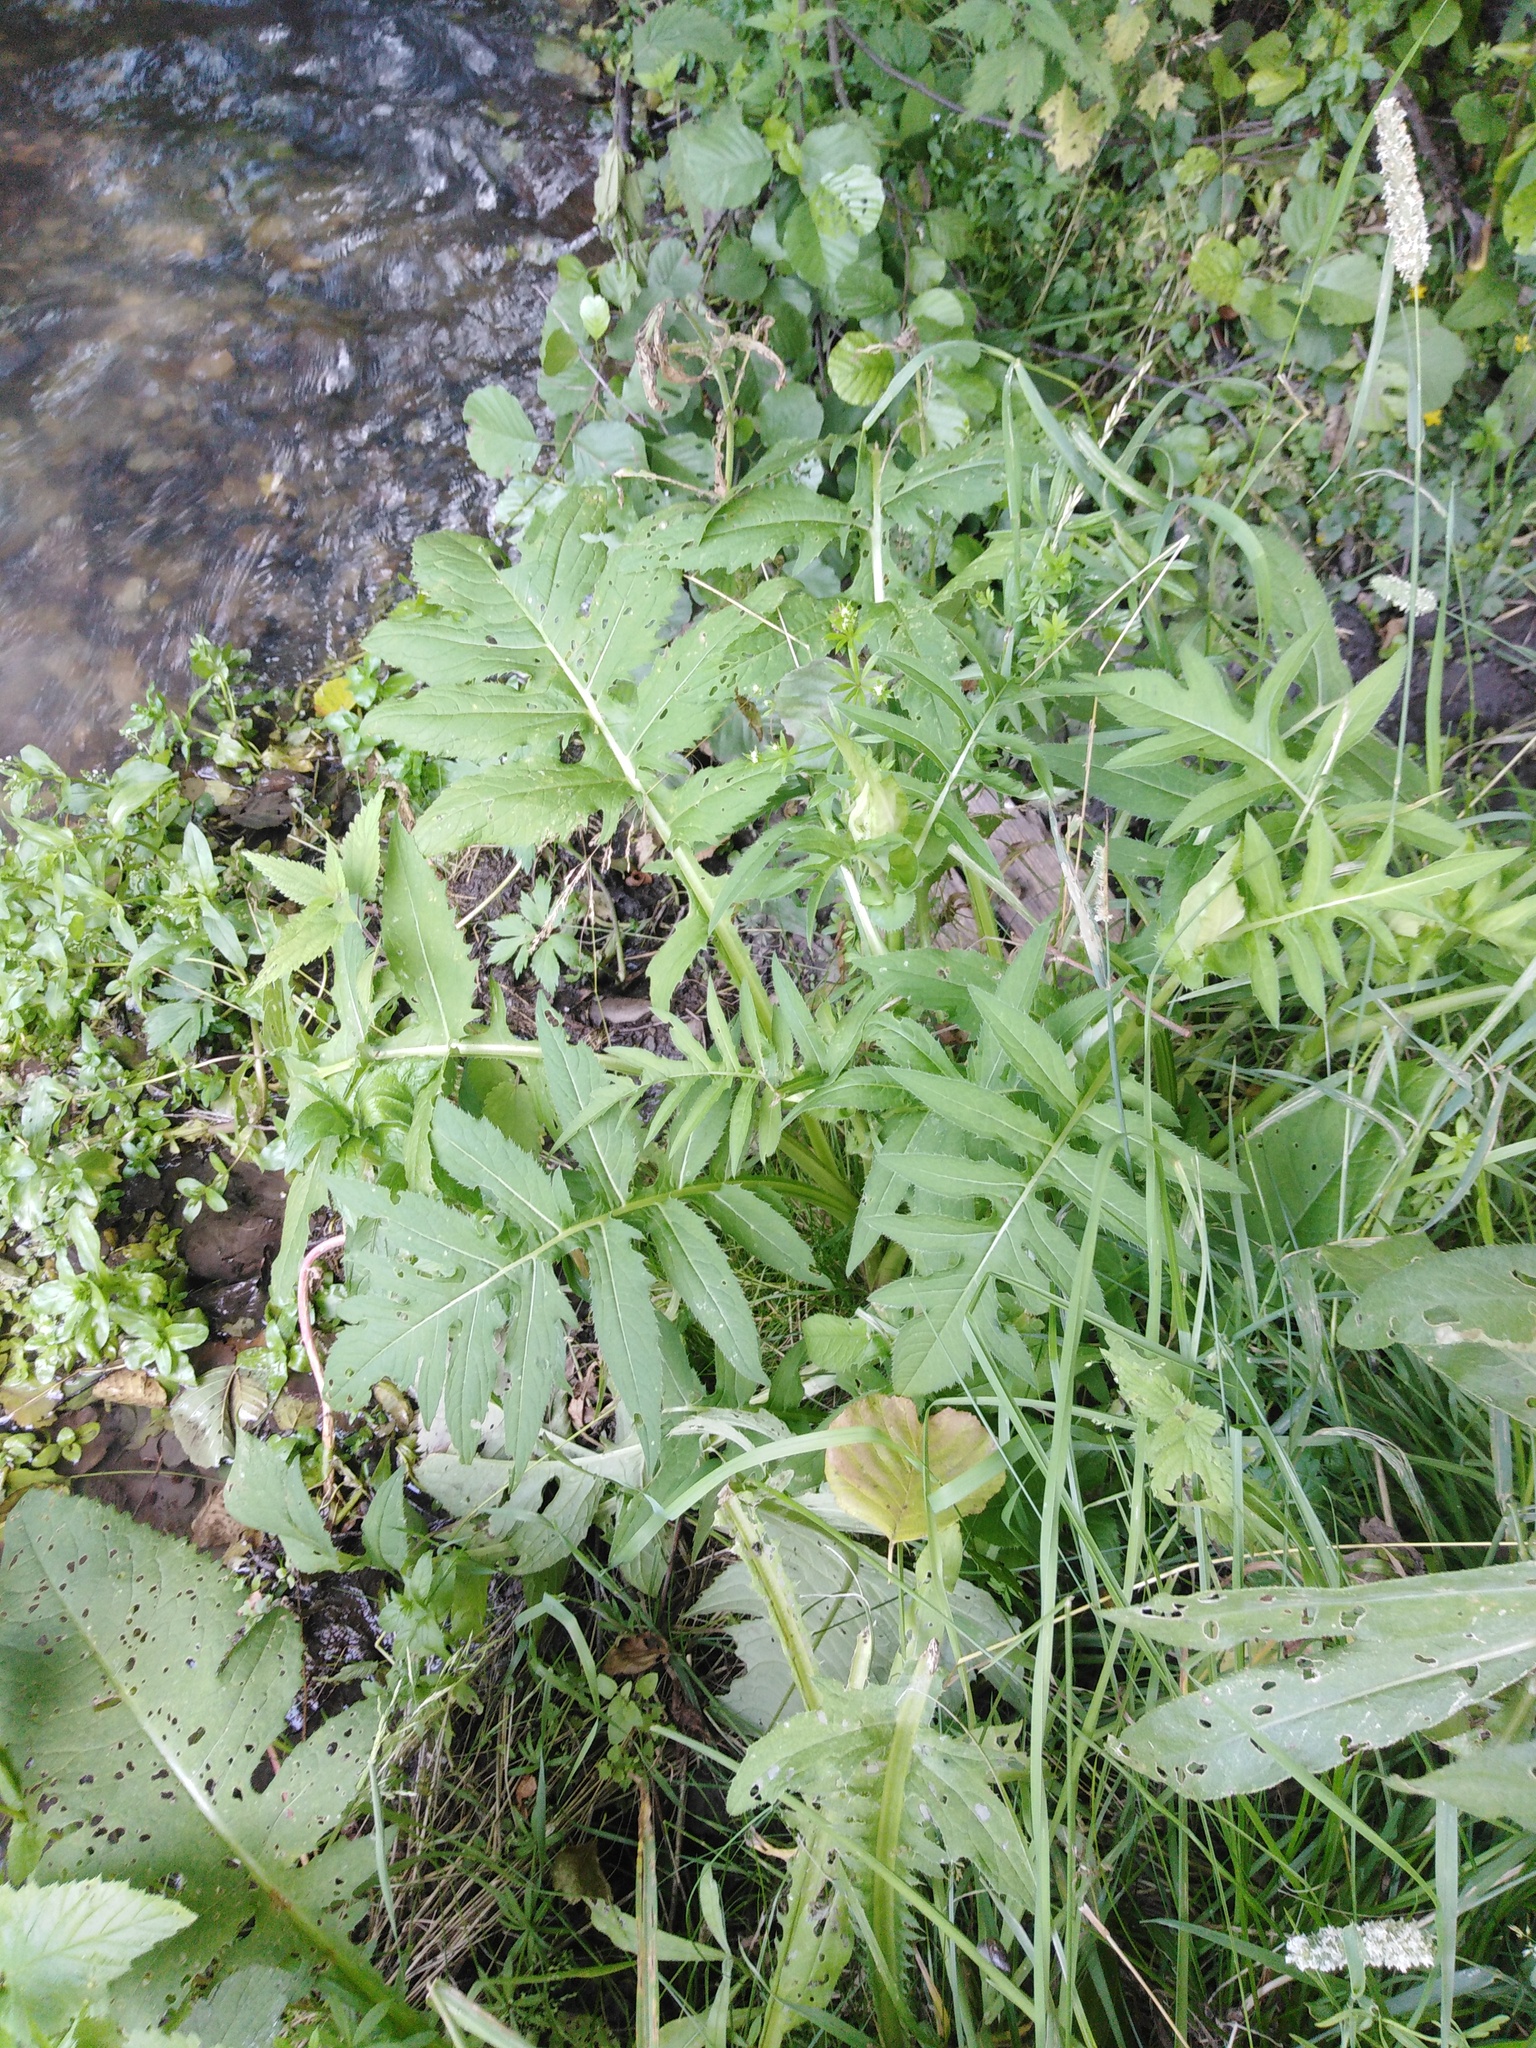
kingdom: Plantae
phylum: Tracheophyta
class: Magnoliopsida
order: Asterales
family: Asteraceae
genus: Cirsium
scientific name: Cirsium oleraceum
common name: Cabbage thistle
